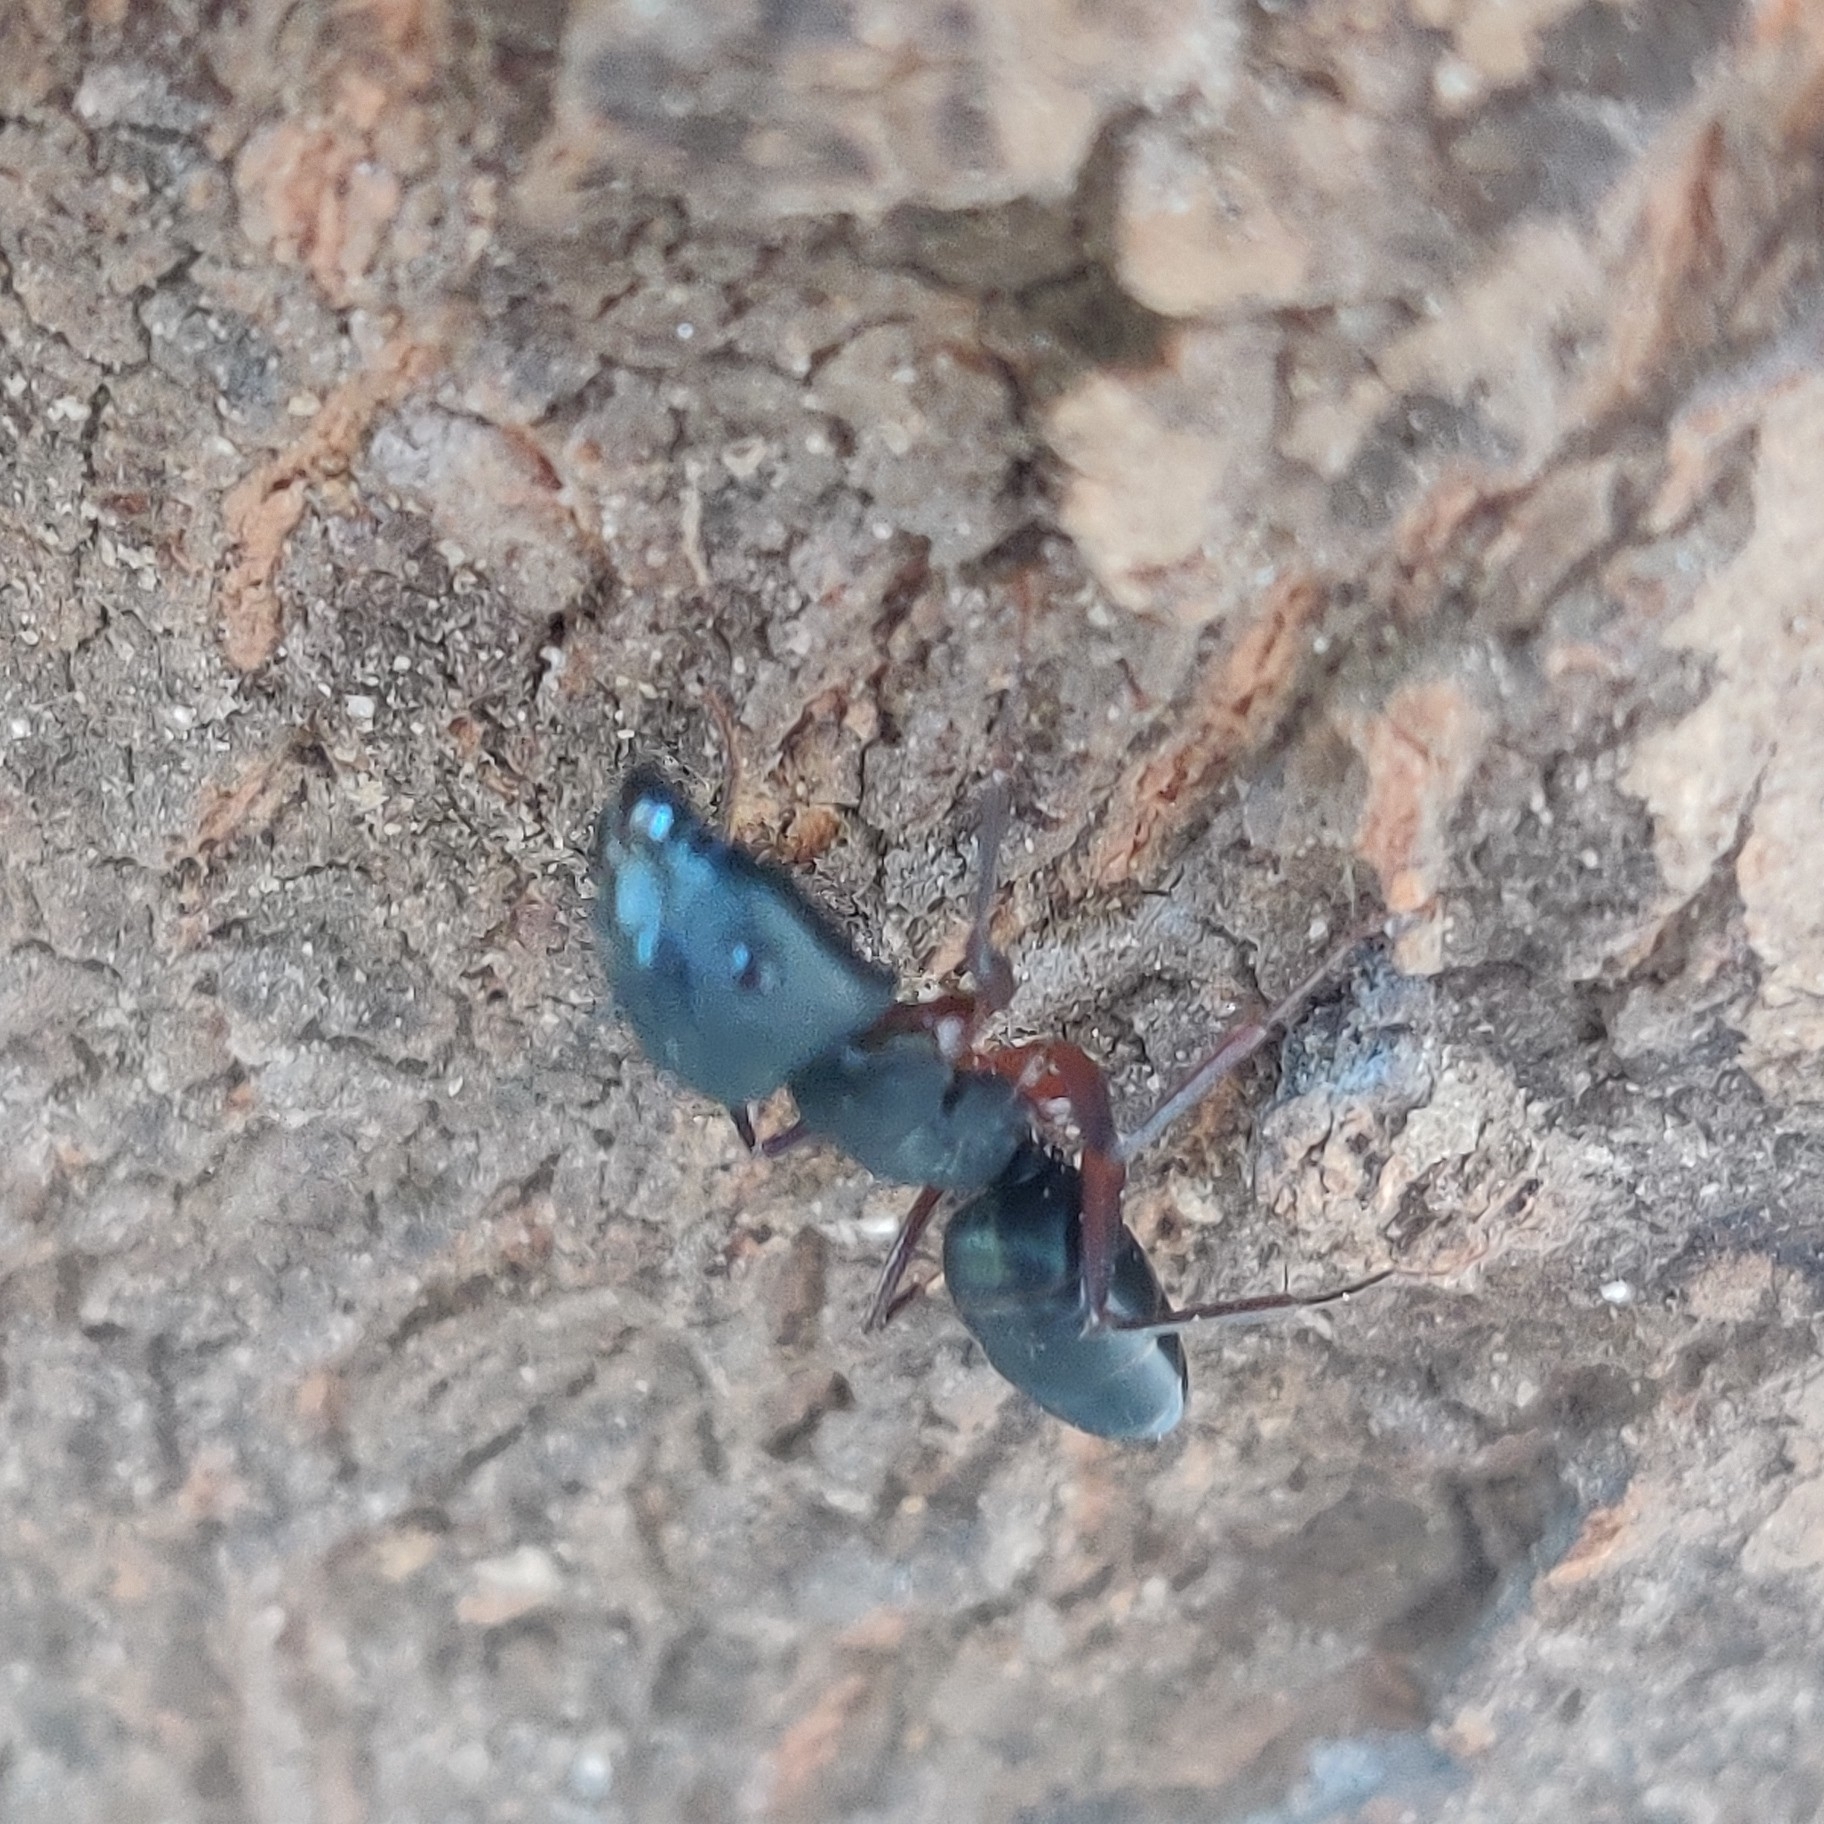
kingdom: Animalia
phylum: Arthropoda
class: Insecta
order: Hymenoptera
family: Formicidae
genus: Camponotus
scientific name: Camponotus compressus
